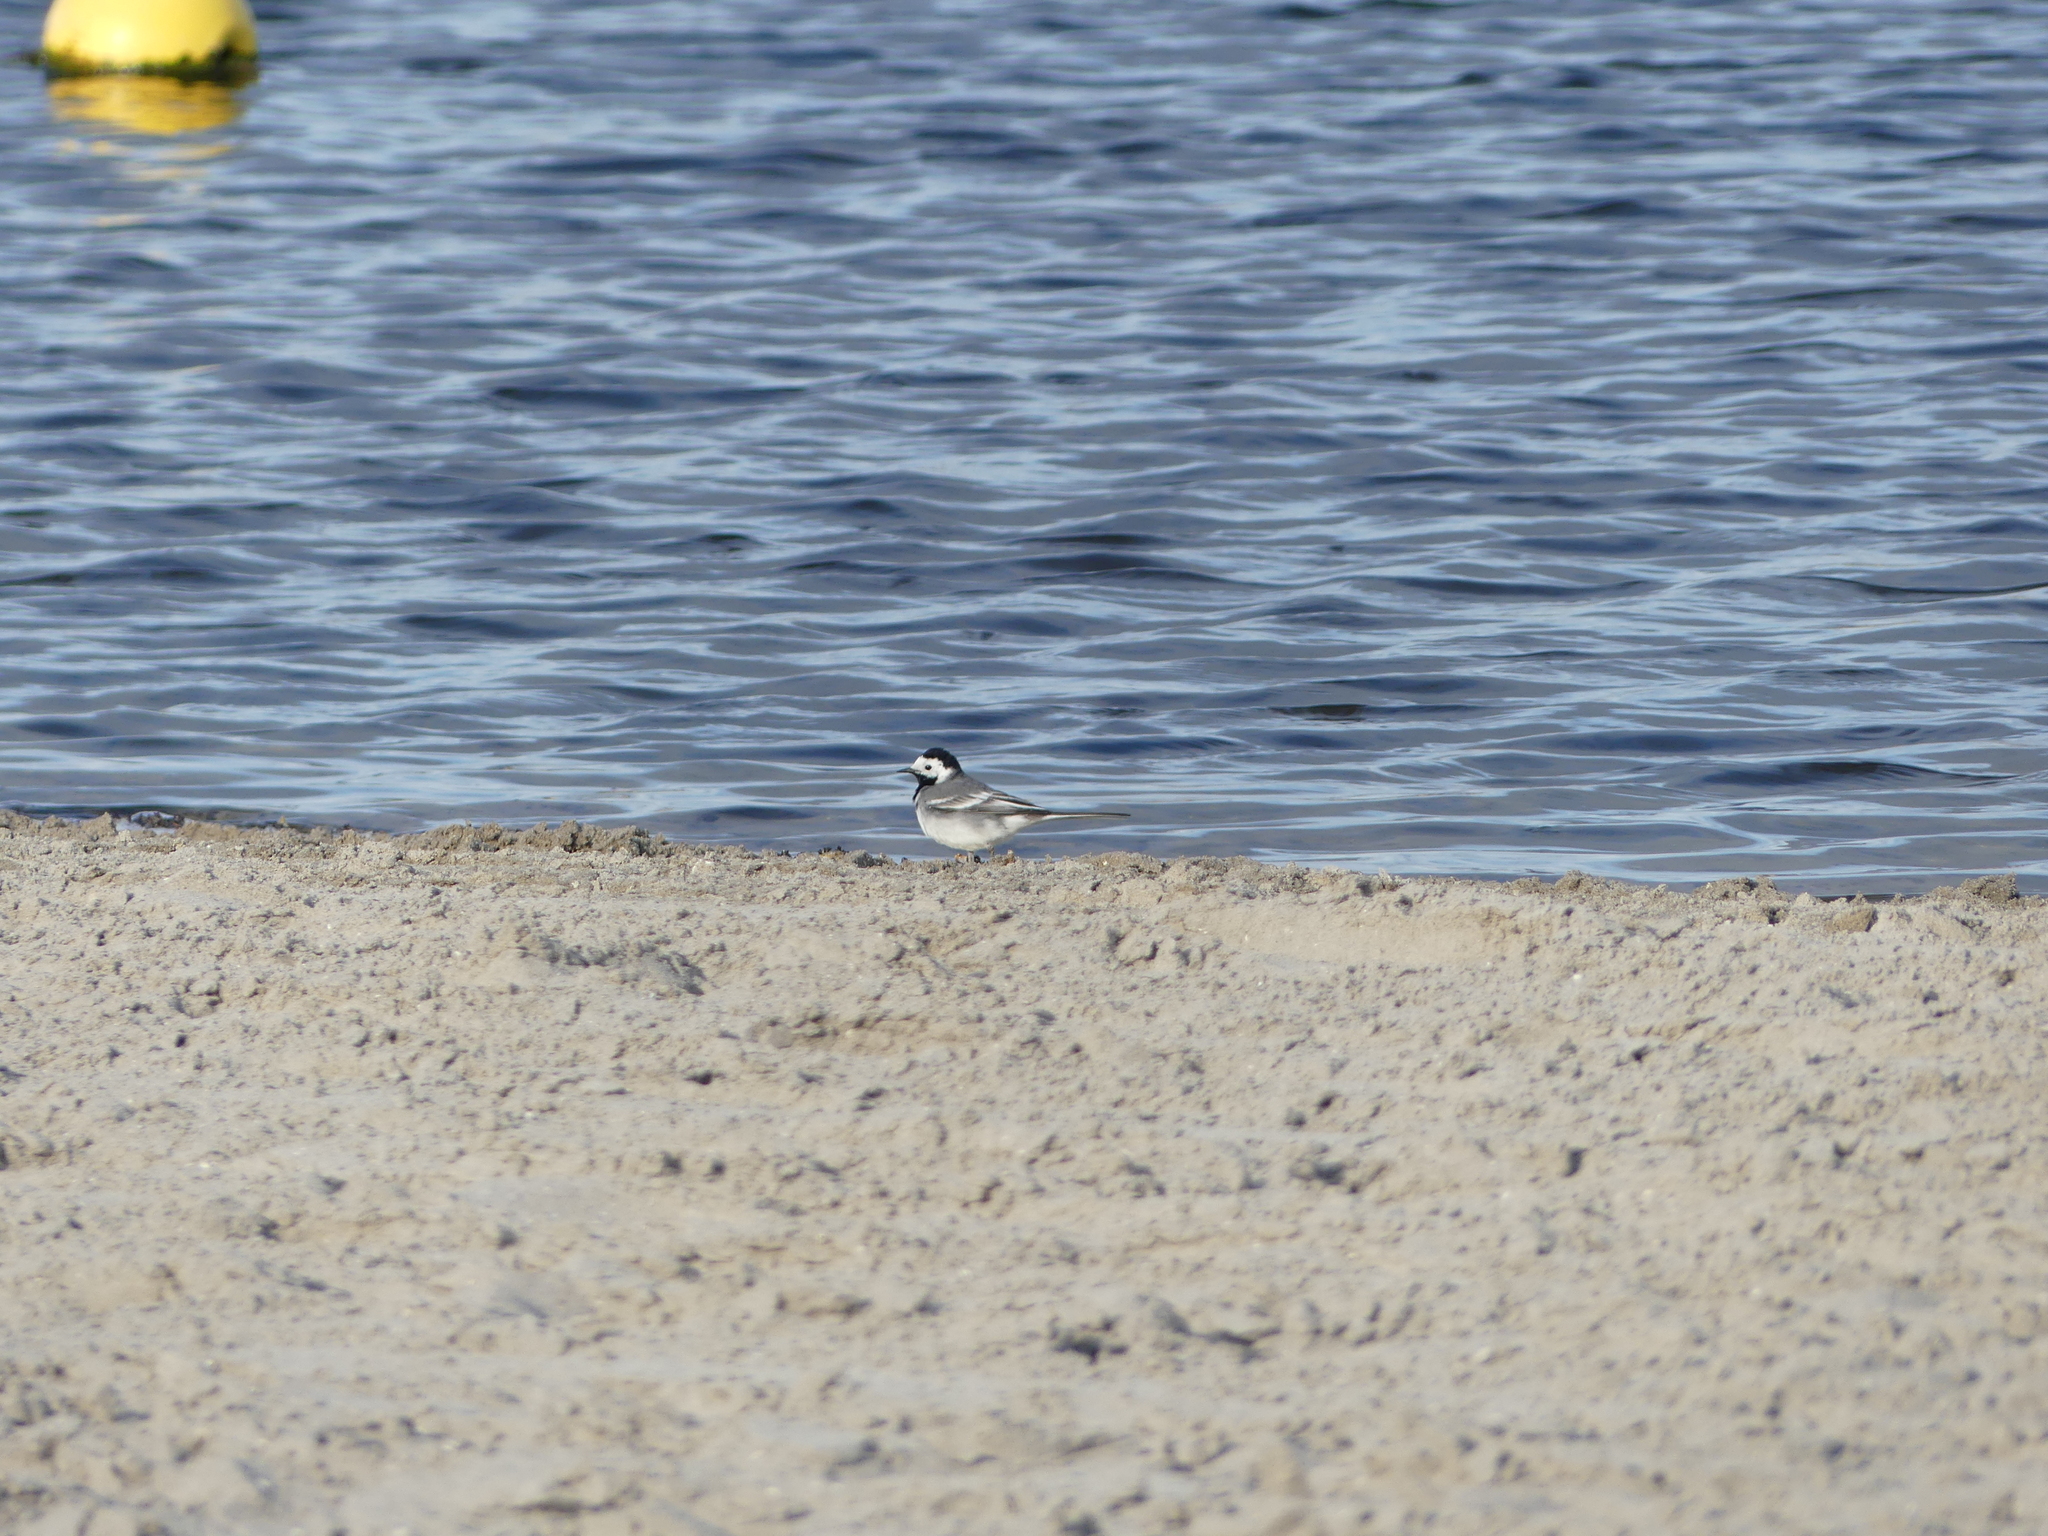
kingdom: Animalia
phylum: Chordata
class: Aves
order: Passeriformes
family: Motacillidae
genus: Motacilla
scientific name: Motacilla alba
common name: White wagtail
